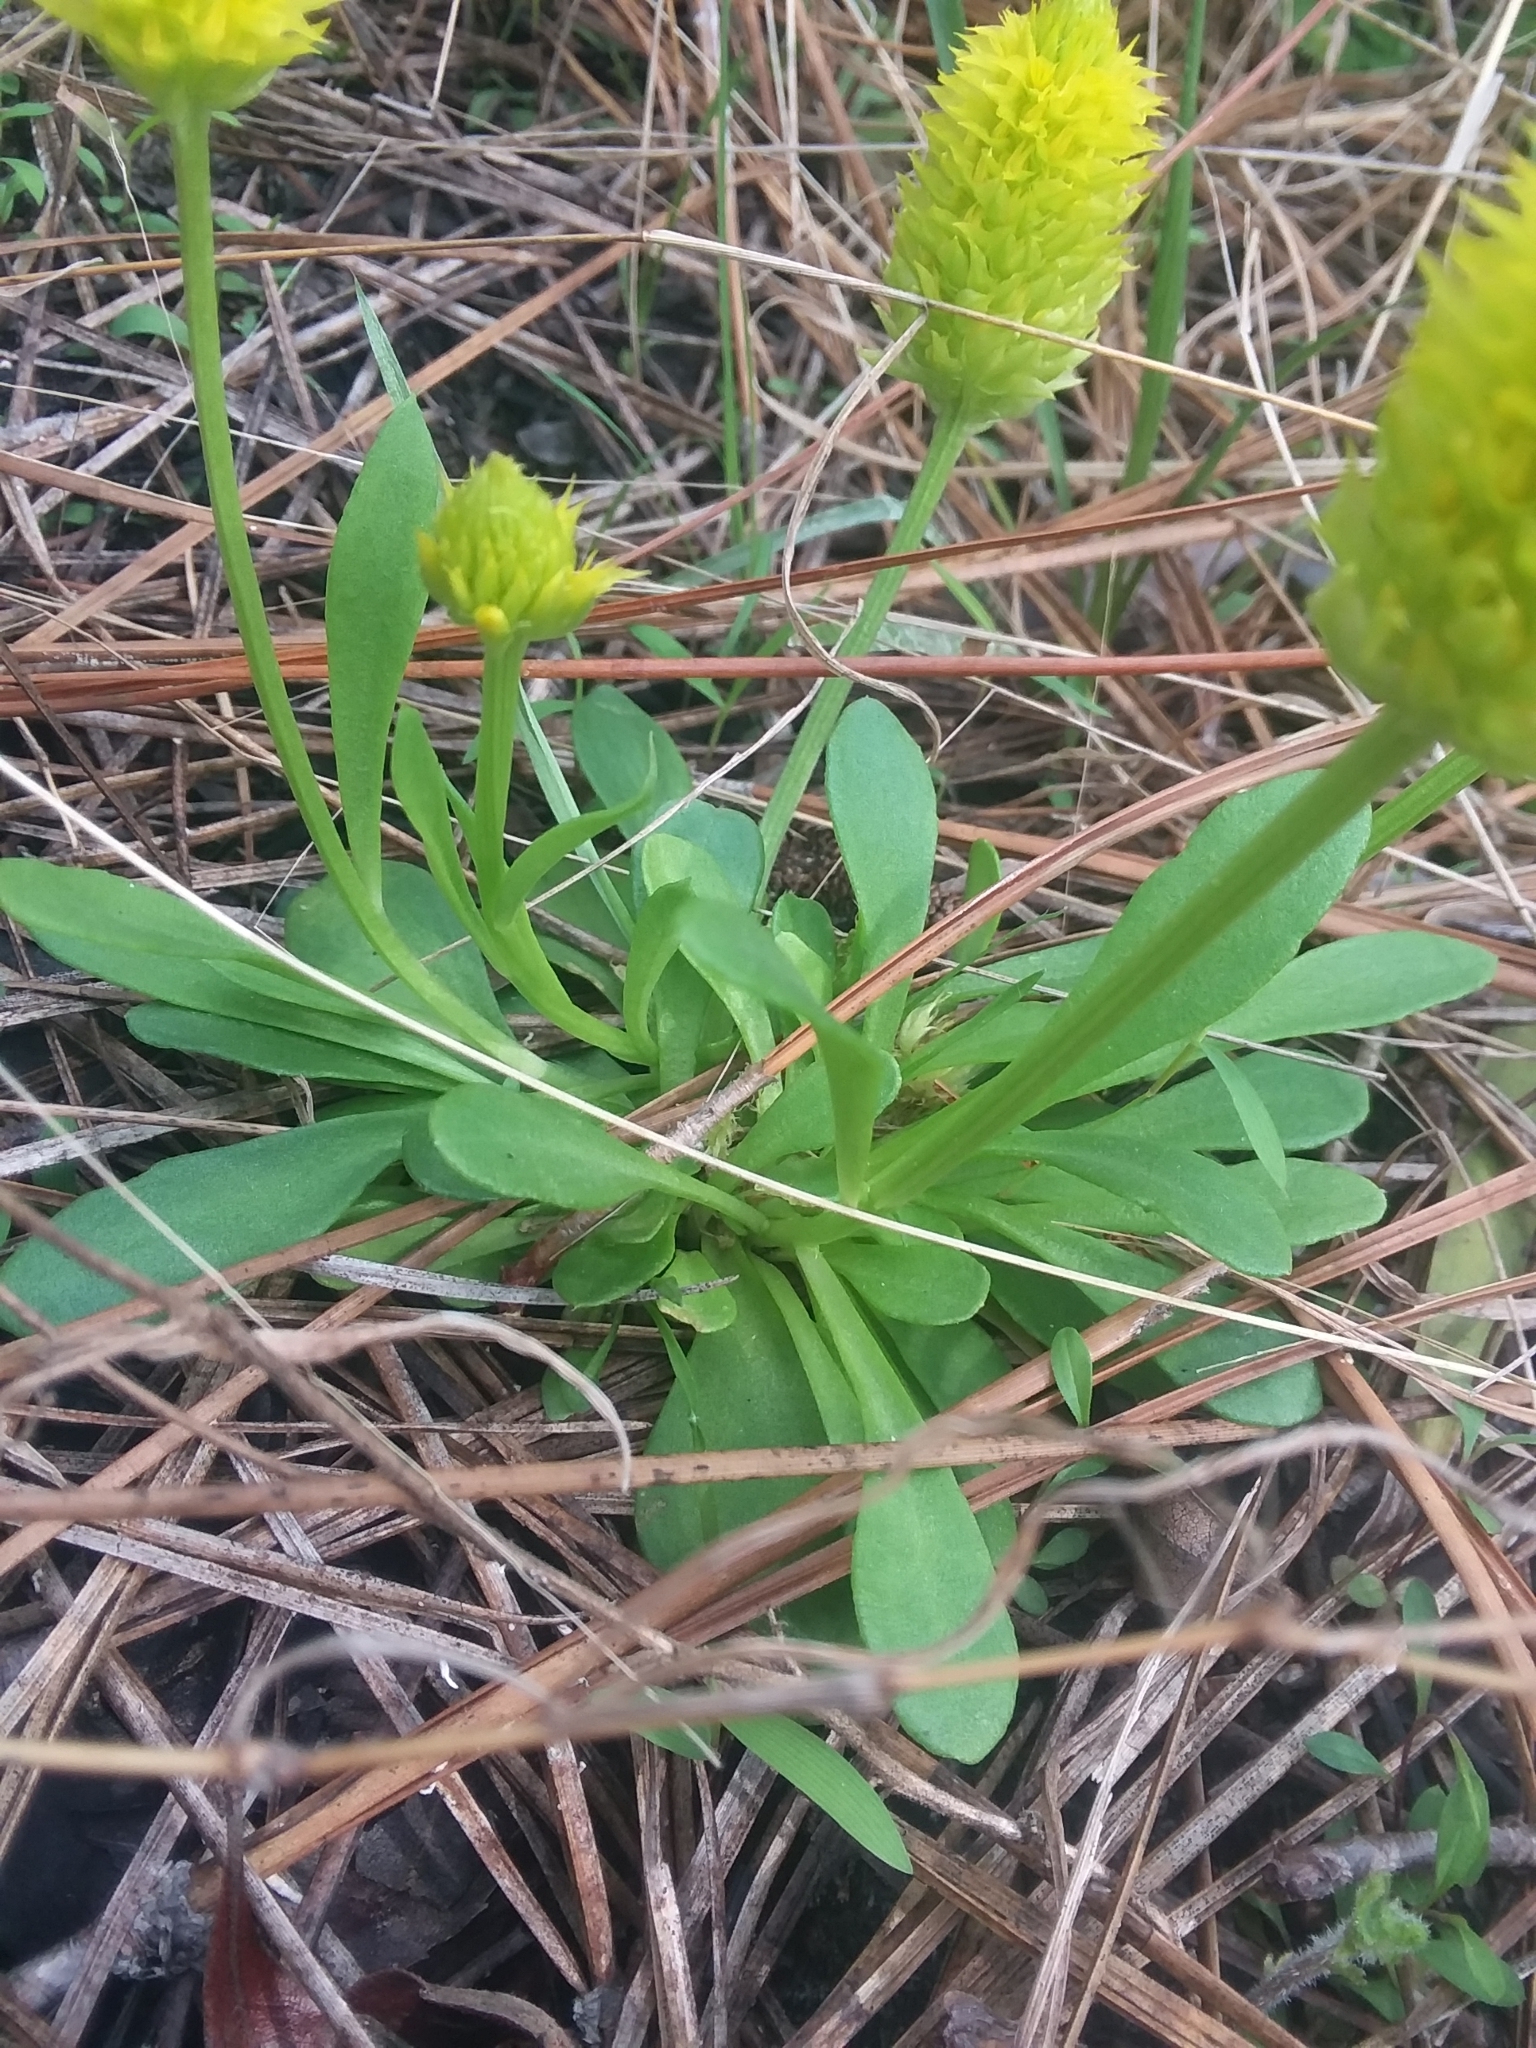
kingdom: Plantae
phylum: Tracheophyta
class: Magnoliopsida
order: Fabales
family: Polygalaceae
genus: Polygala
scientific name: Polygala nana
